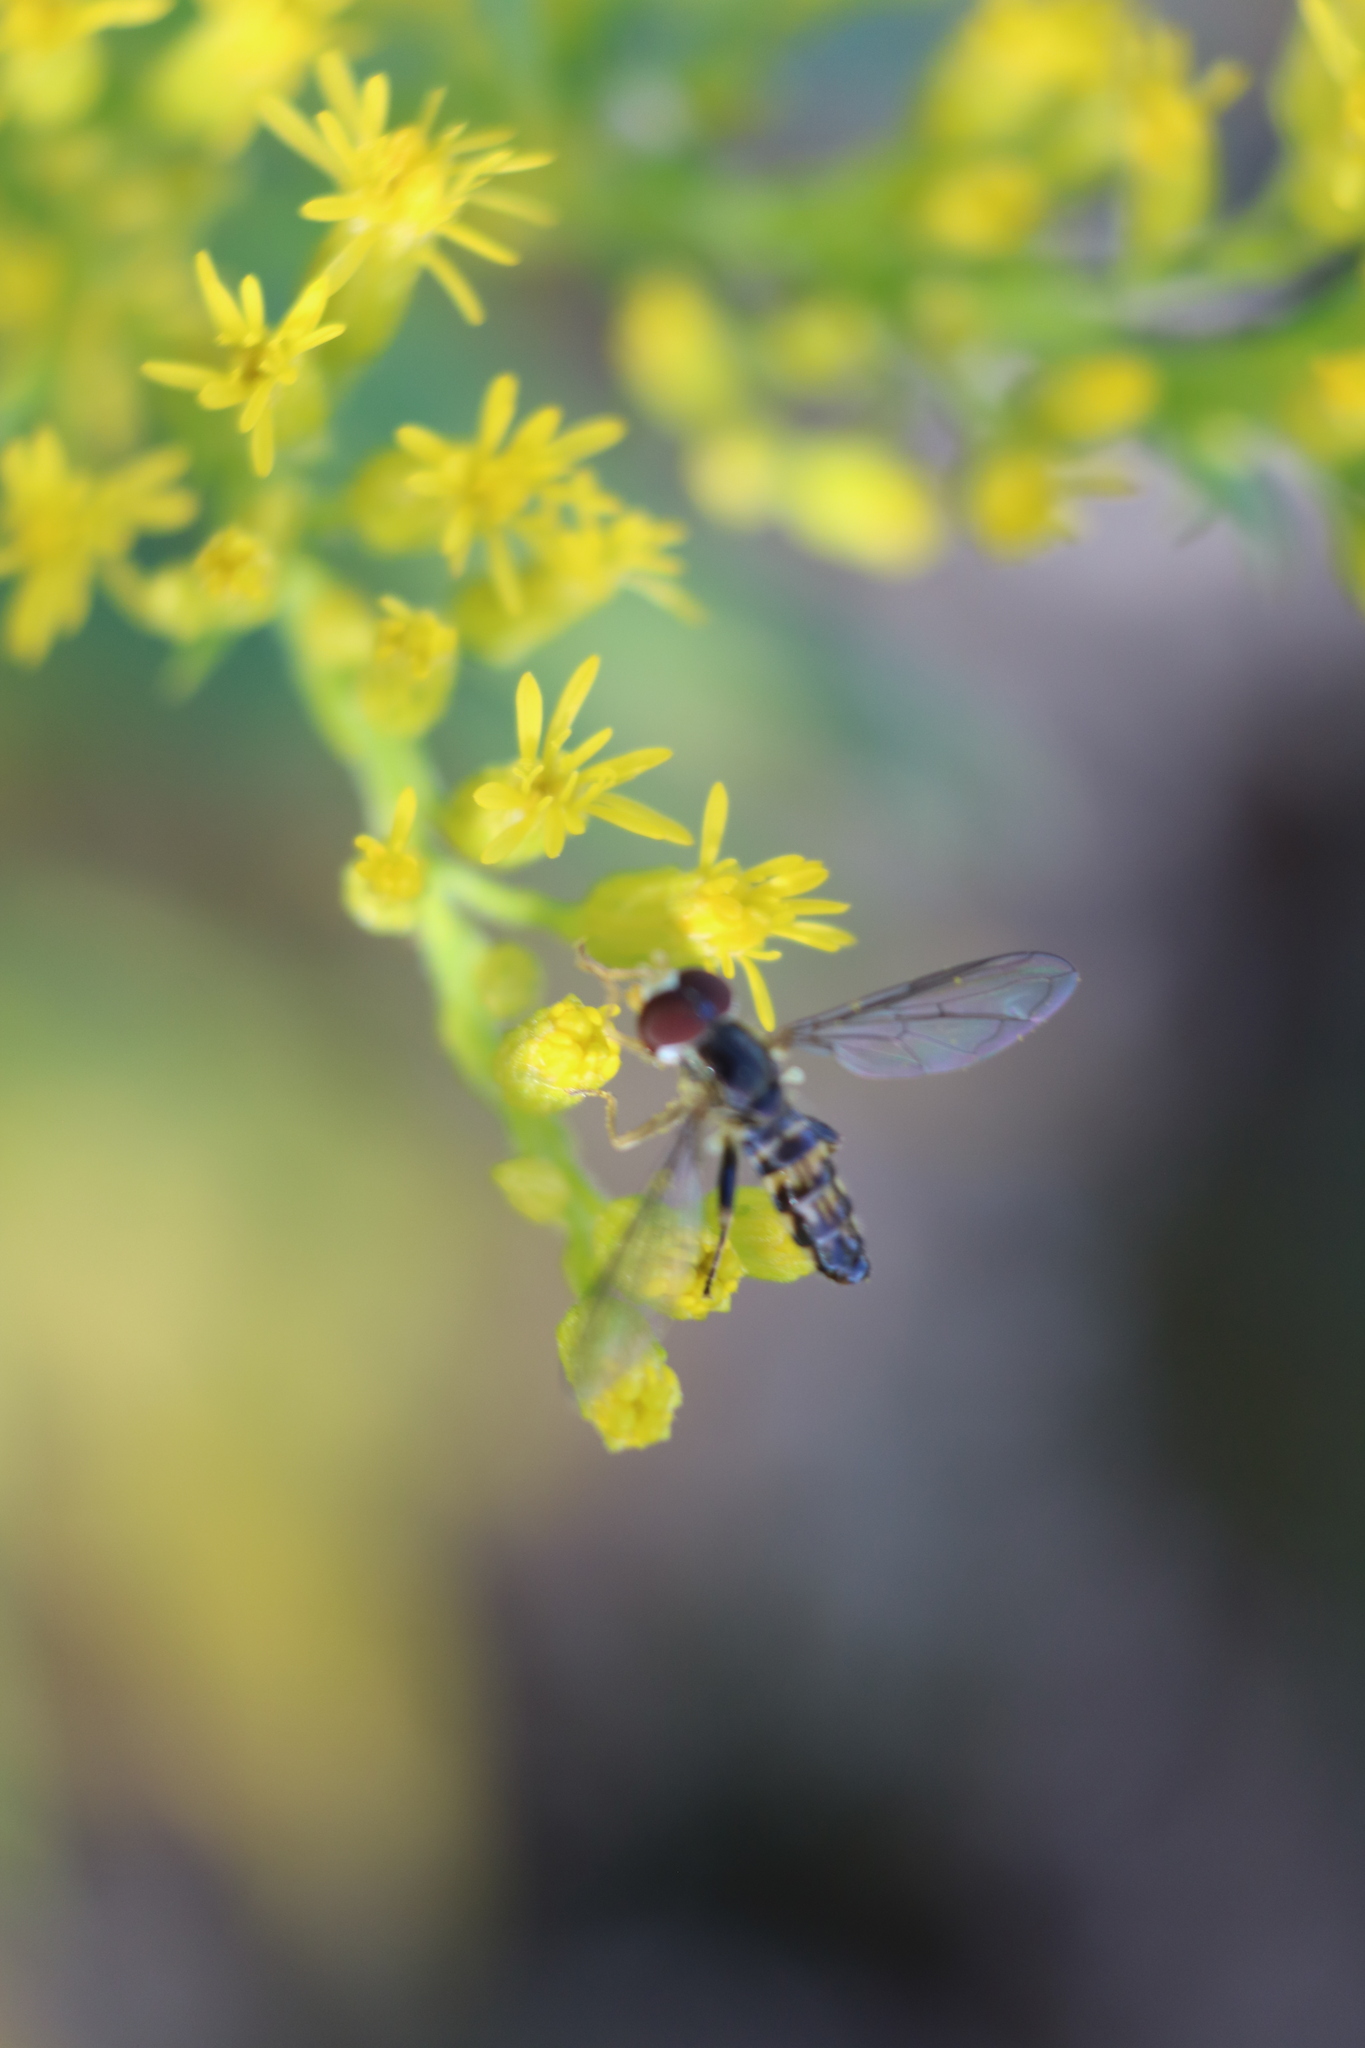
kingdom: Animalia
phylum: Arthropoda
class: Insecta
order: Diptera
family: Syrphidae
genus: Toxomerus
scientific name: Toxomerus geminatus
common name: Eastern calligrapher
